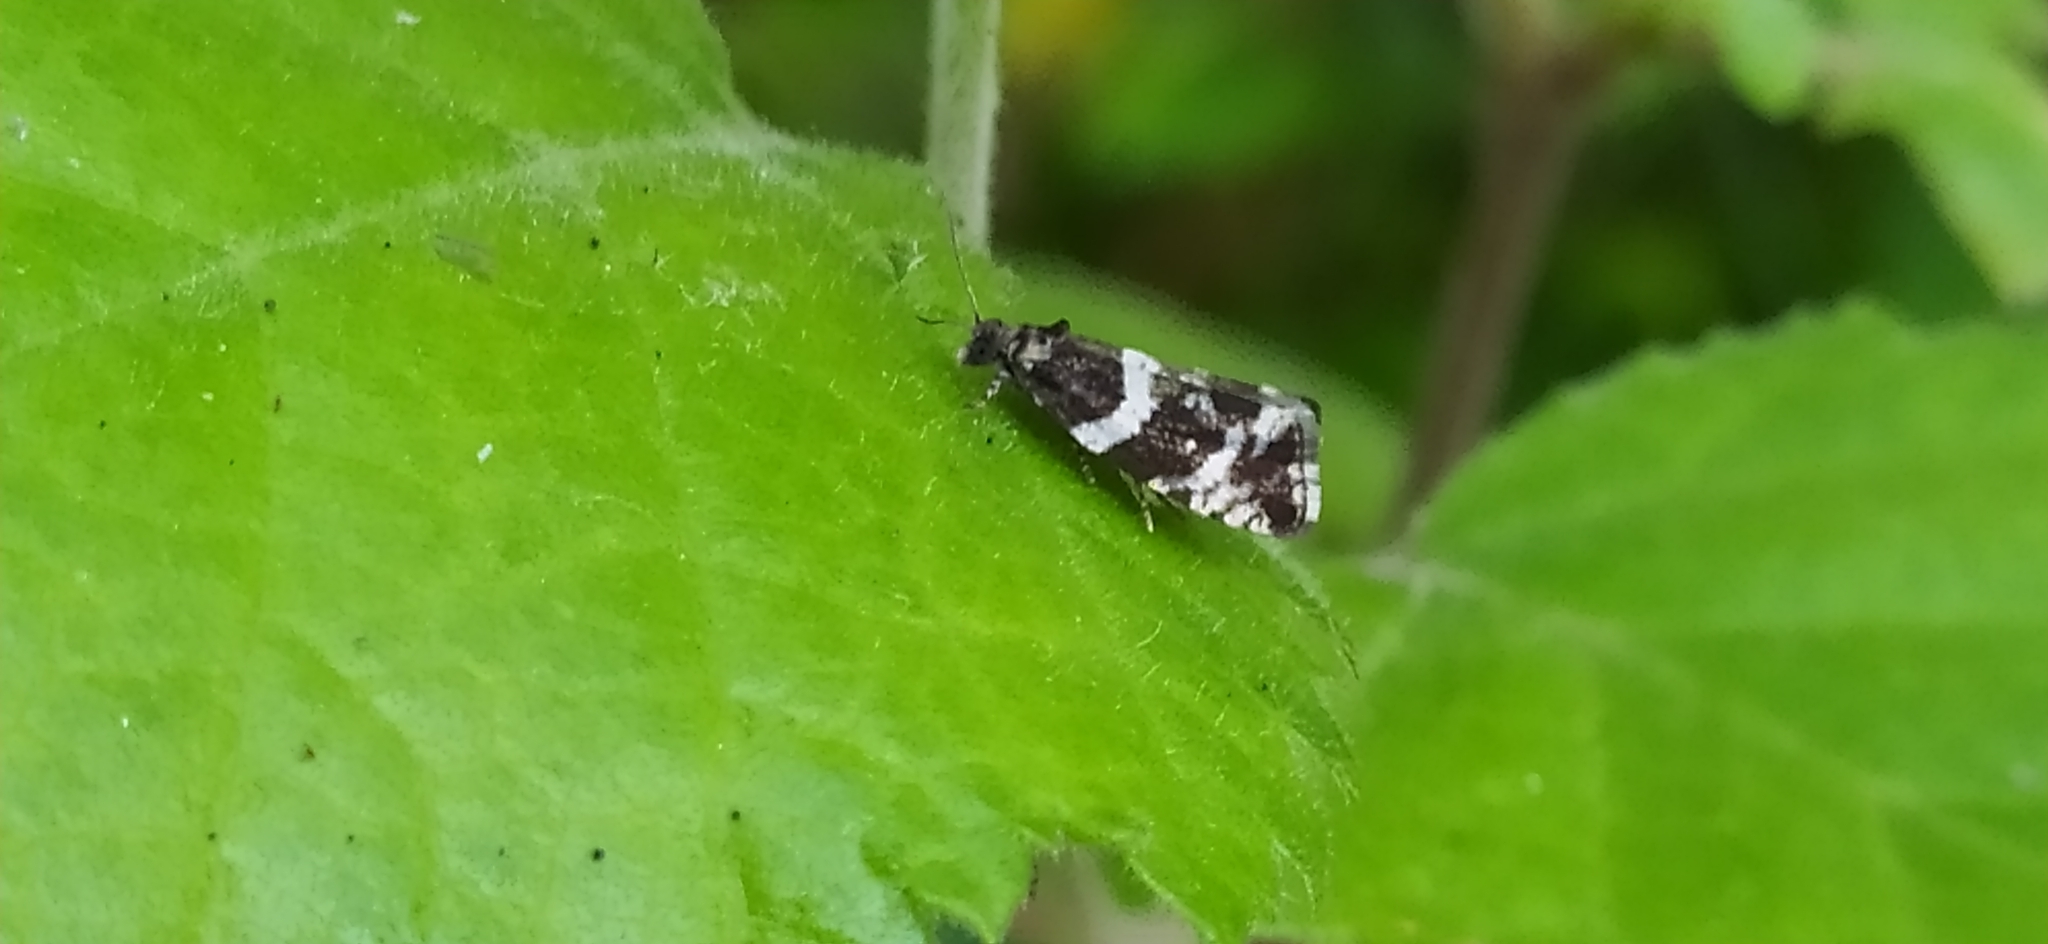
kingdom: Animalia
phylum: Arthropoda
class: Insecta
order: Lepidoptera
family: Tortricidae
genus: Argyroploce
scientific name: Argyroploce bipunctana
